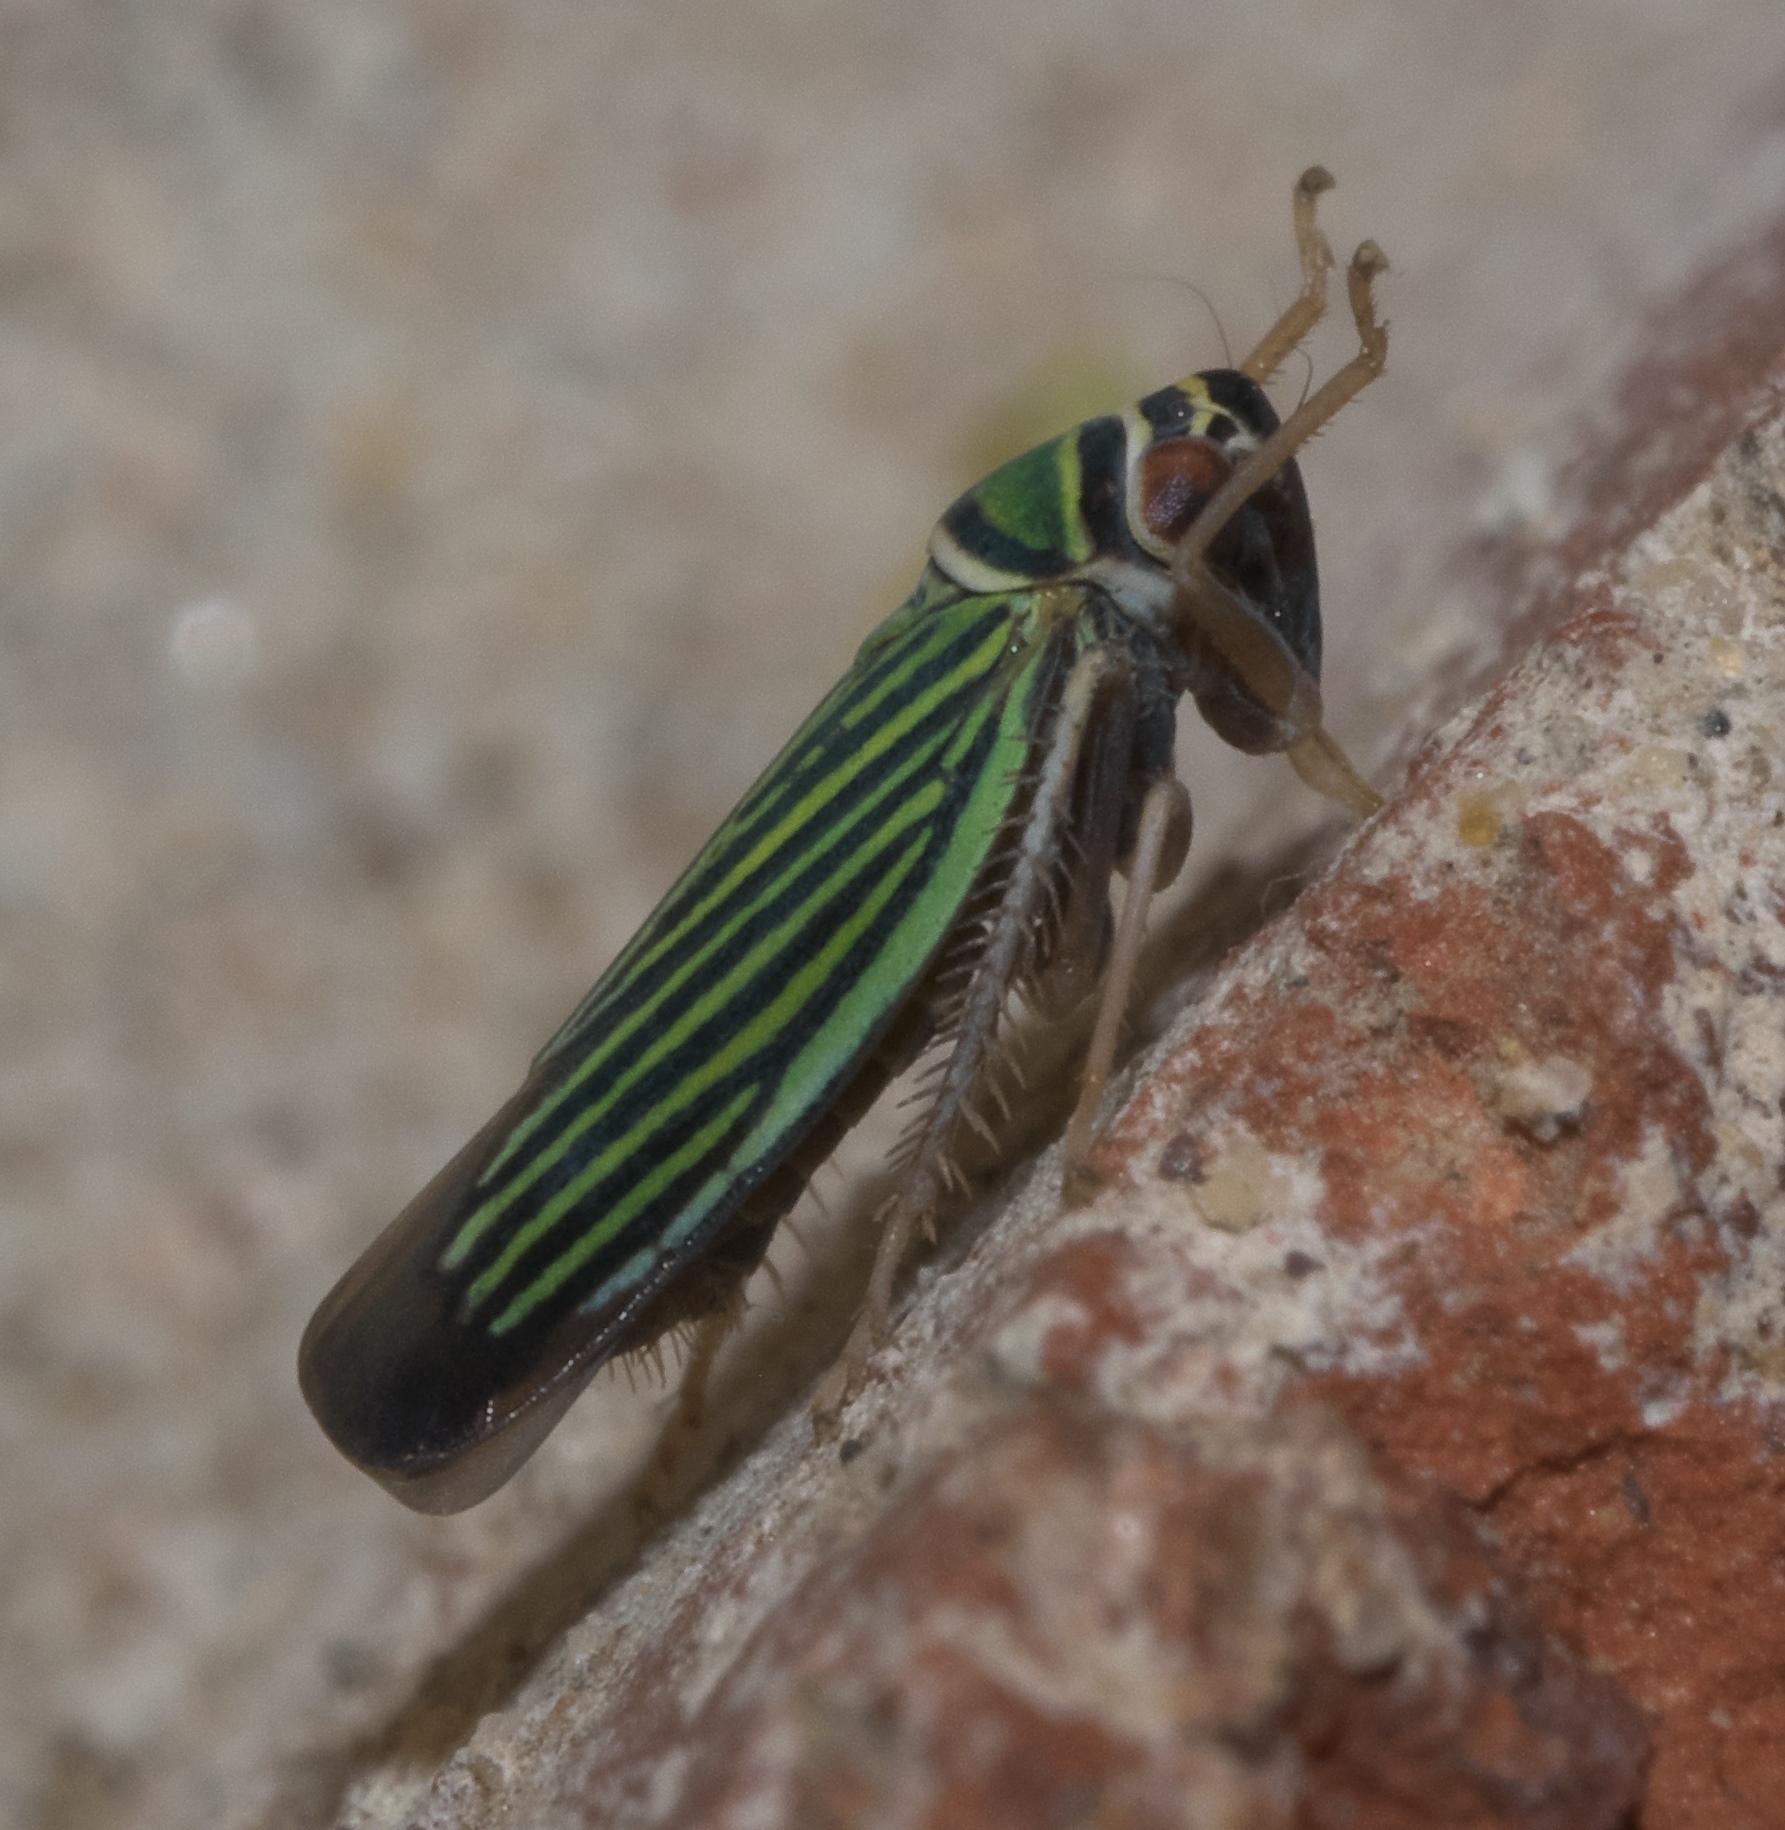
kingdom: Animalia
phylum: Arthropoda
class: Insecta
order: Hemiptera
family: Cicadellidae
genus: Tylozygus
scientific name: Tylozygus bifidus
